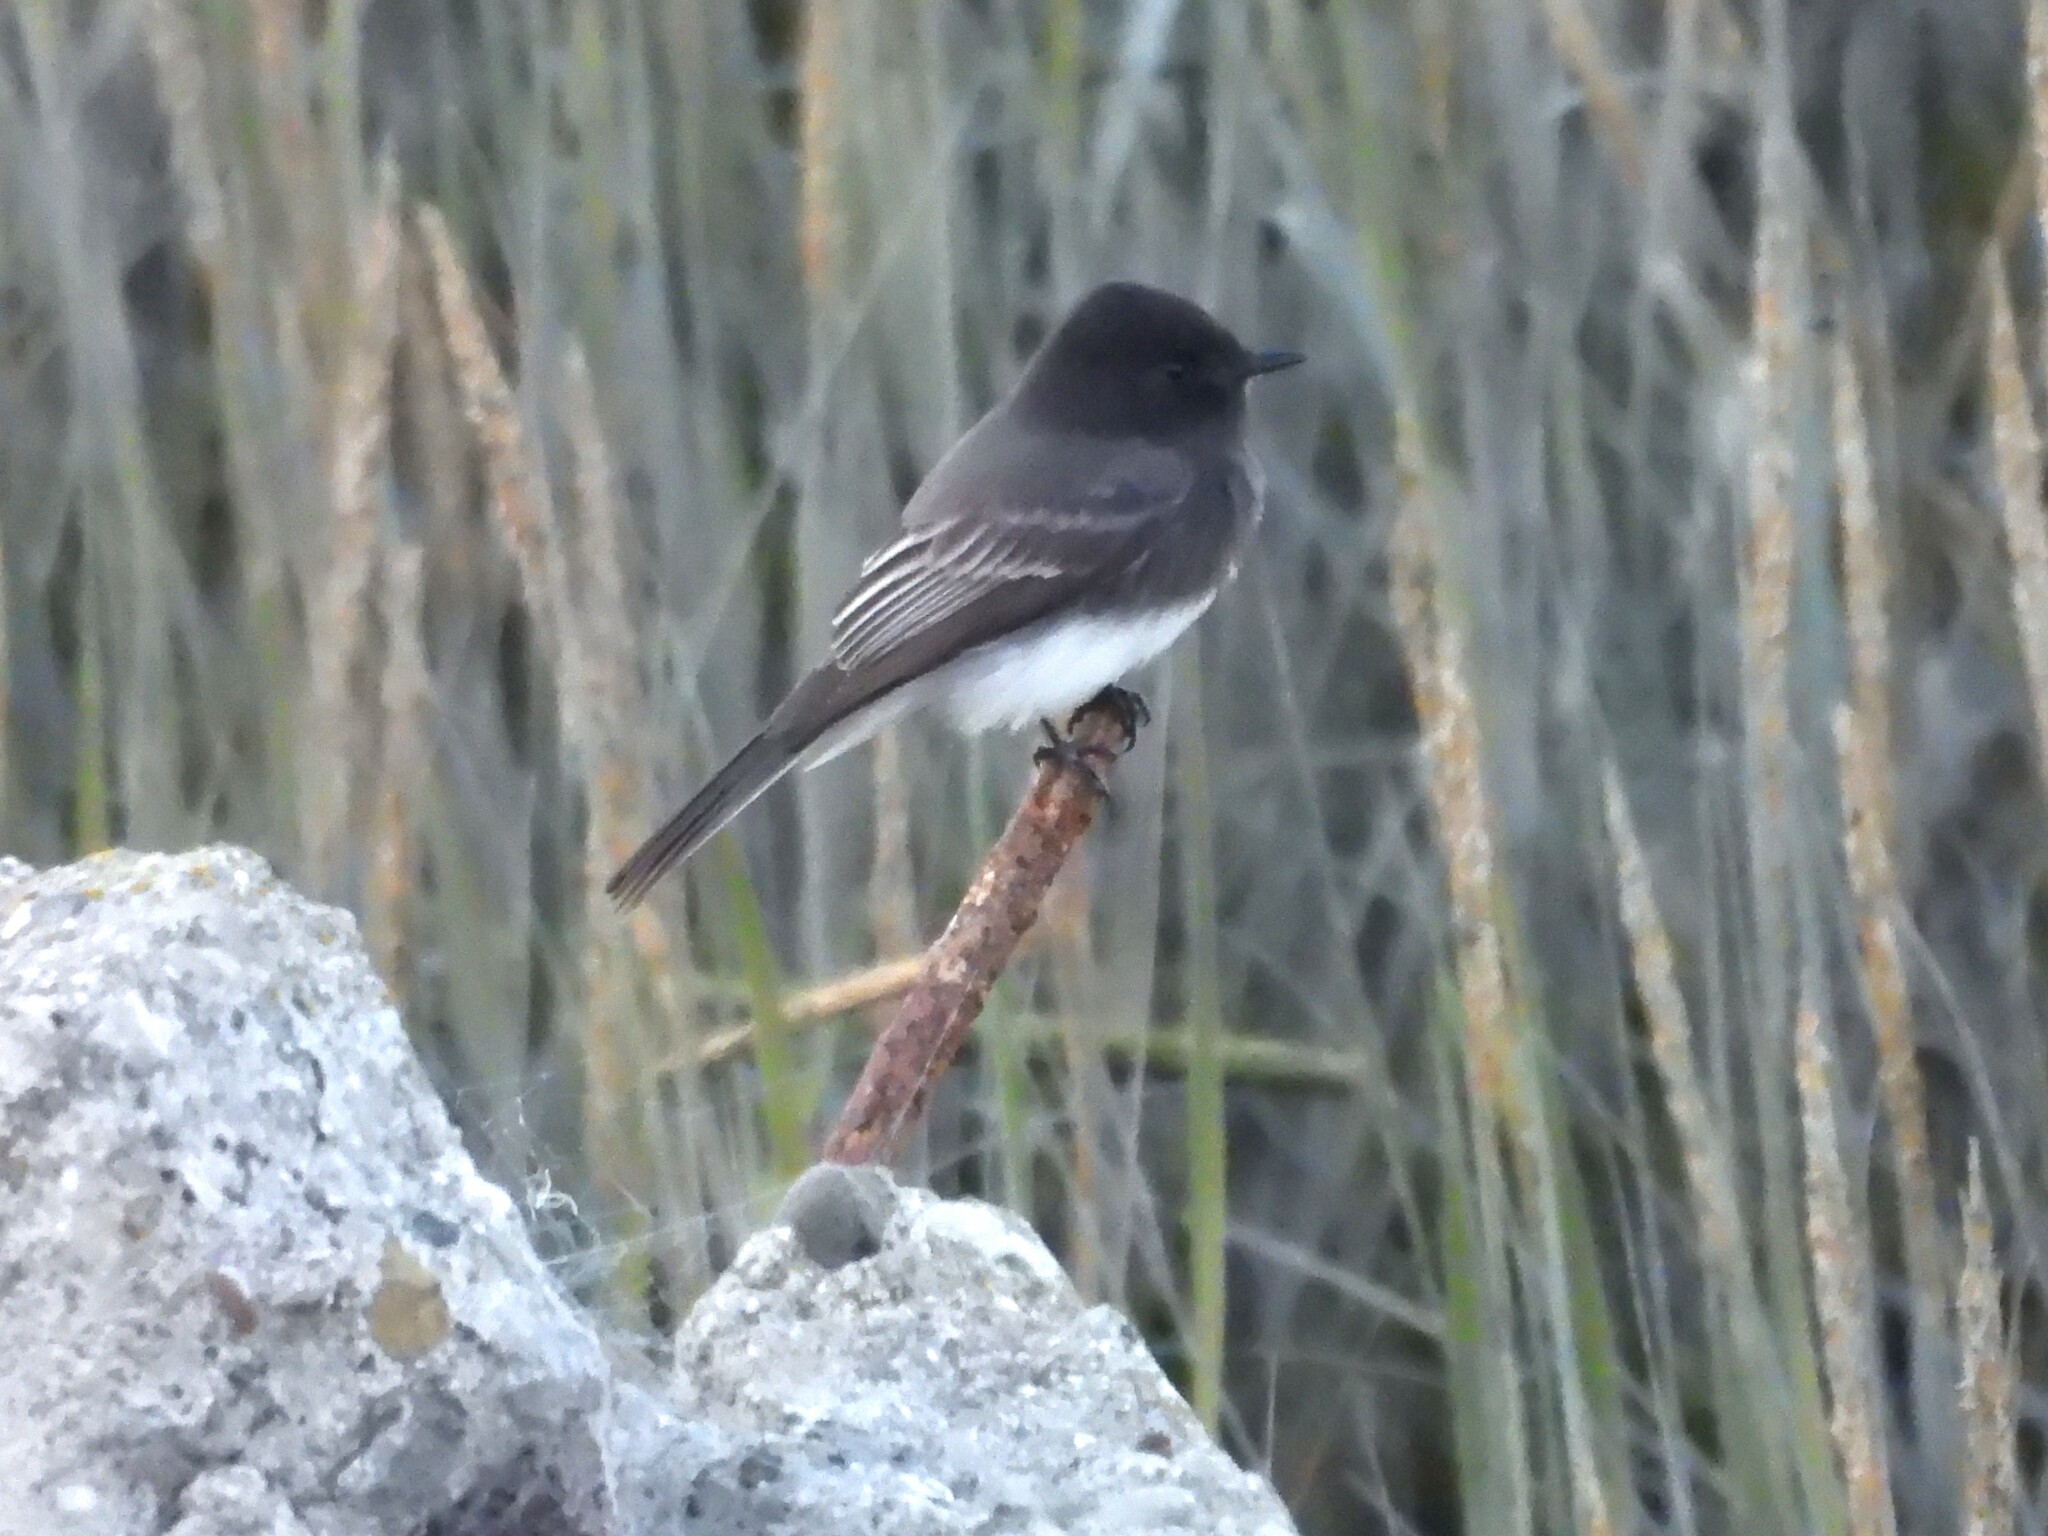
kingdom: Animalia
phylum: Chordata
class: Aves
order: Passeriformes
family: Tyrannidae
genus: Sayornis
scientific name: Sayornis nigricans
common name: Black phoebe
